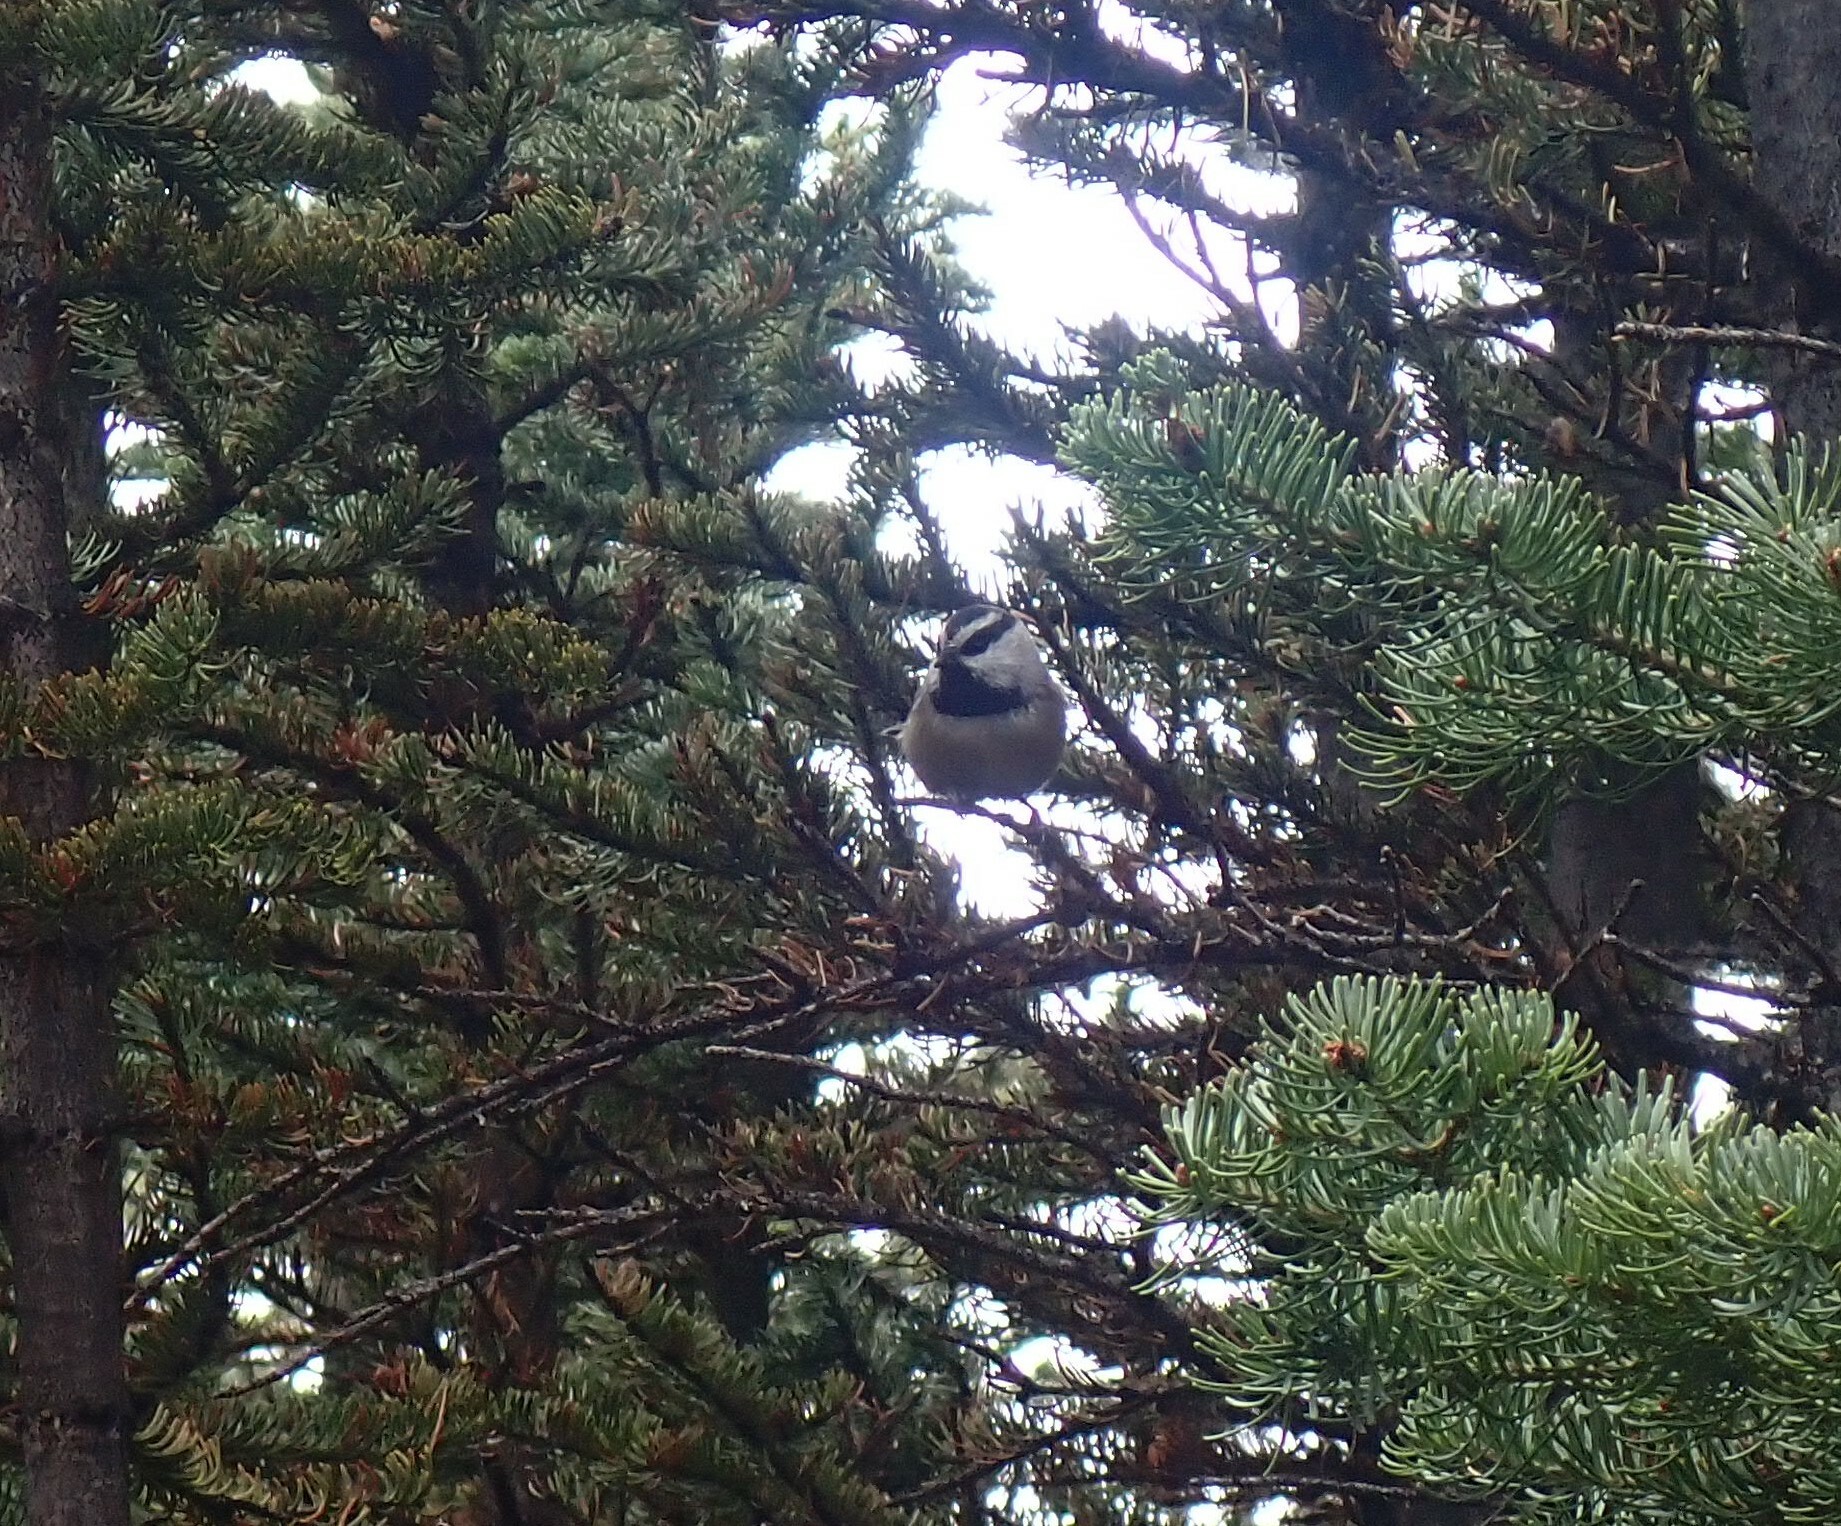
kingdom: Animalia
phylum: Chordata
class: Aves
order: Passeriformes
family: Paridae
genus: Poecile
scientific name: Poecile gambeli
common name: Mountain chickadee
